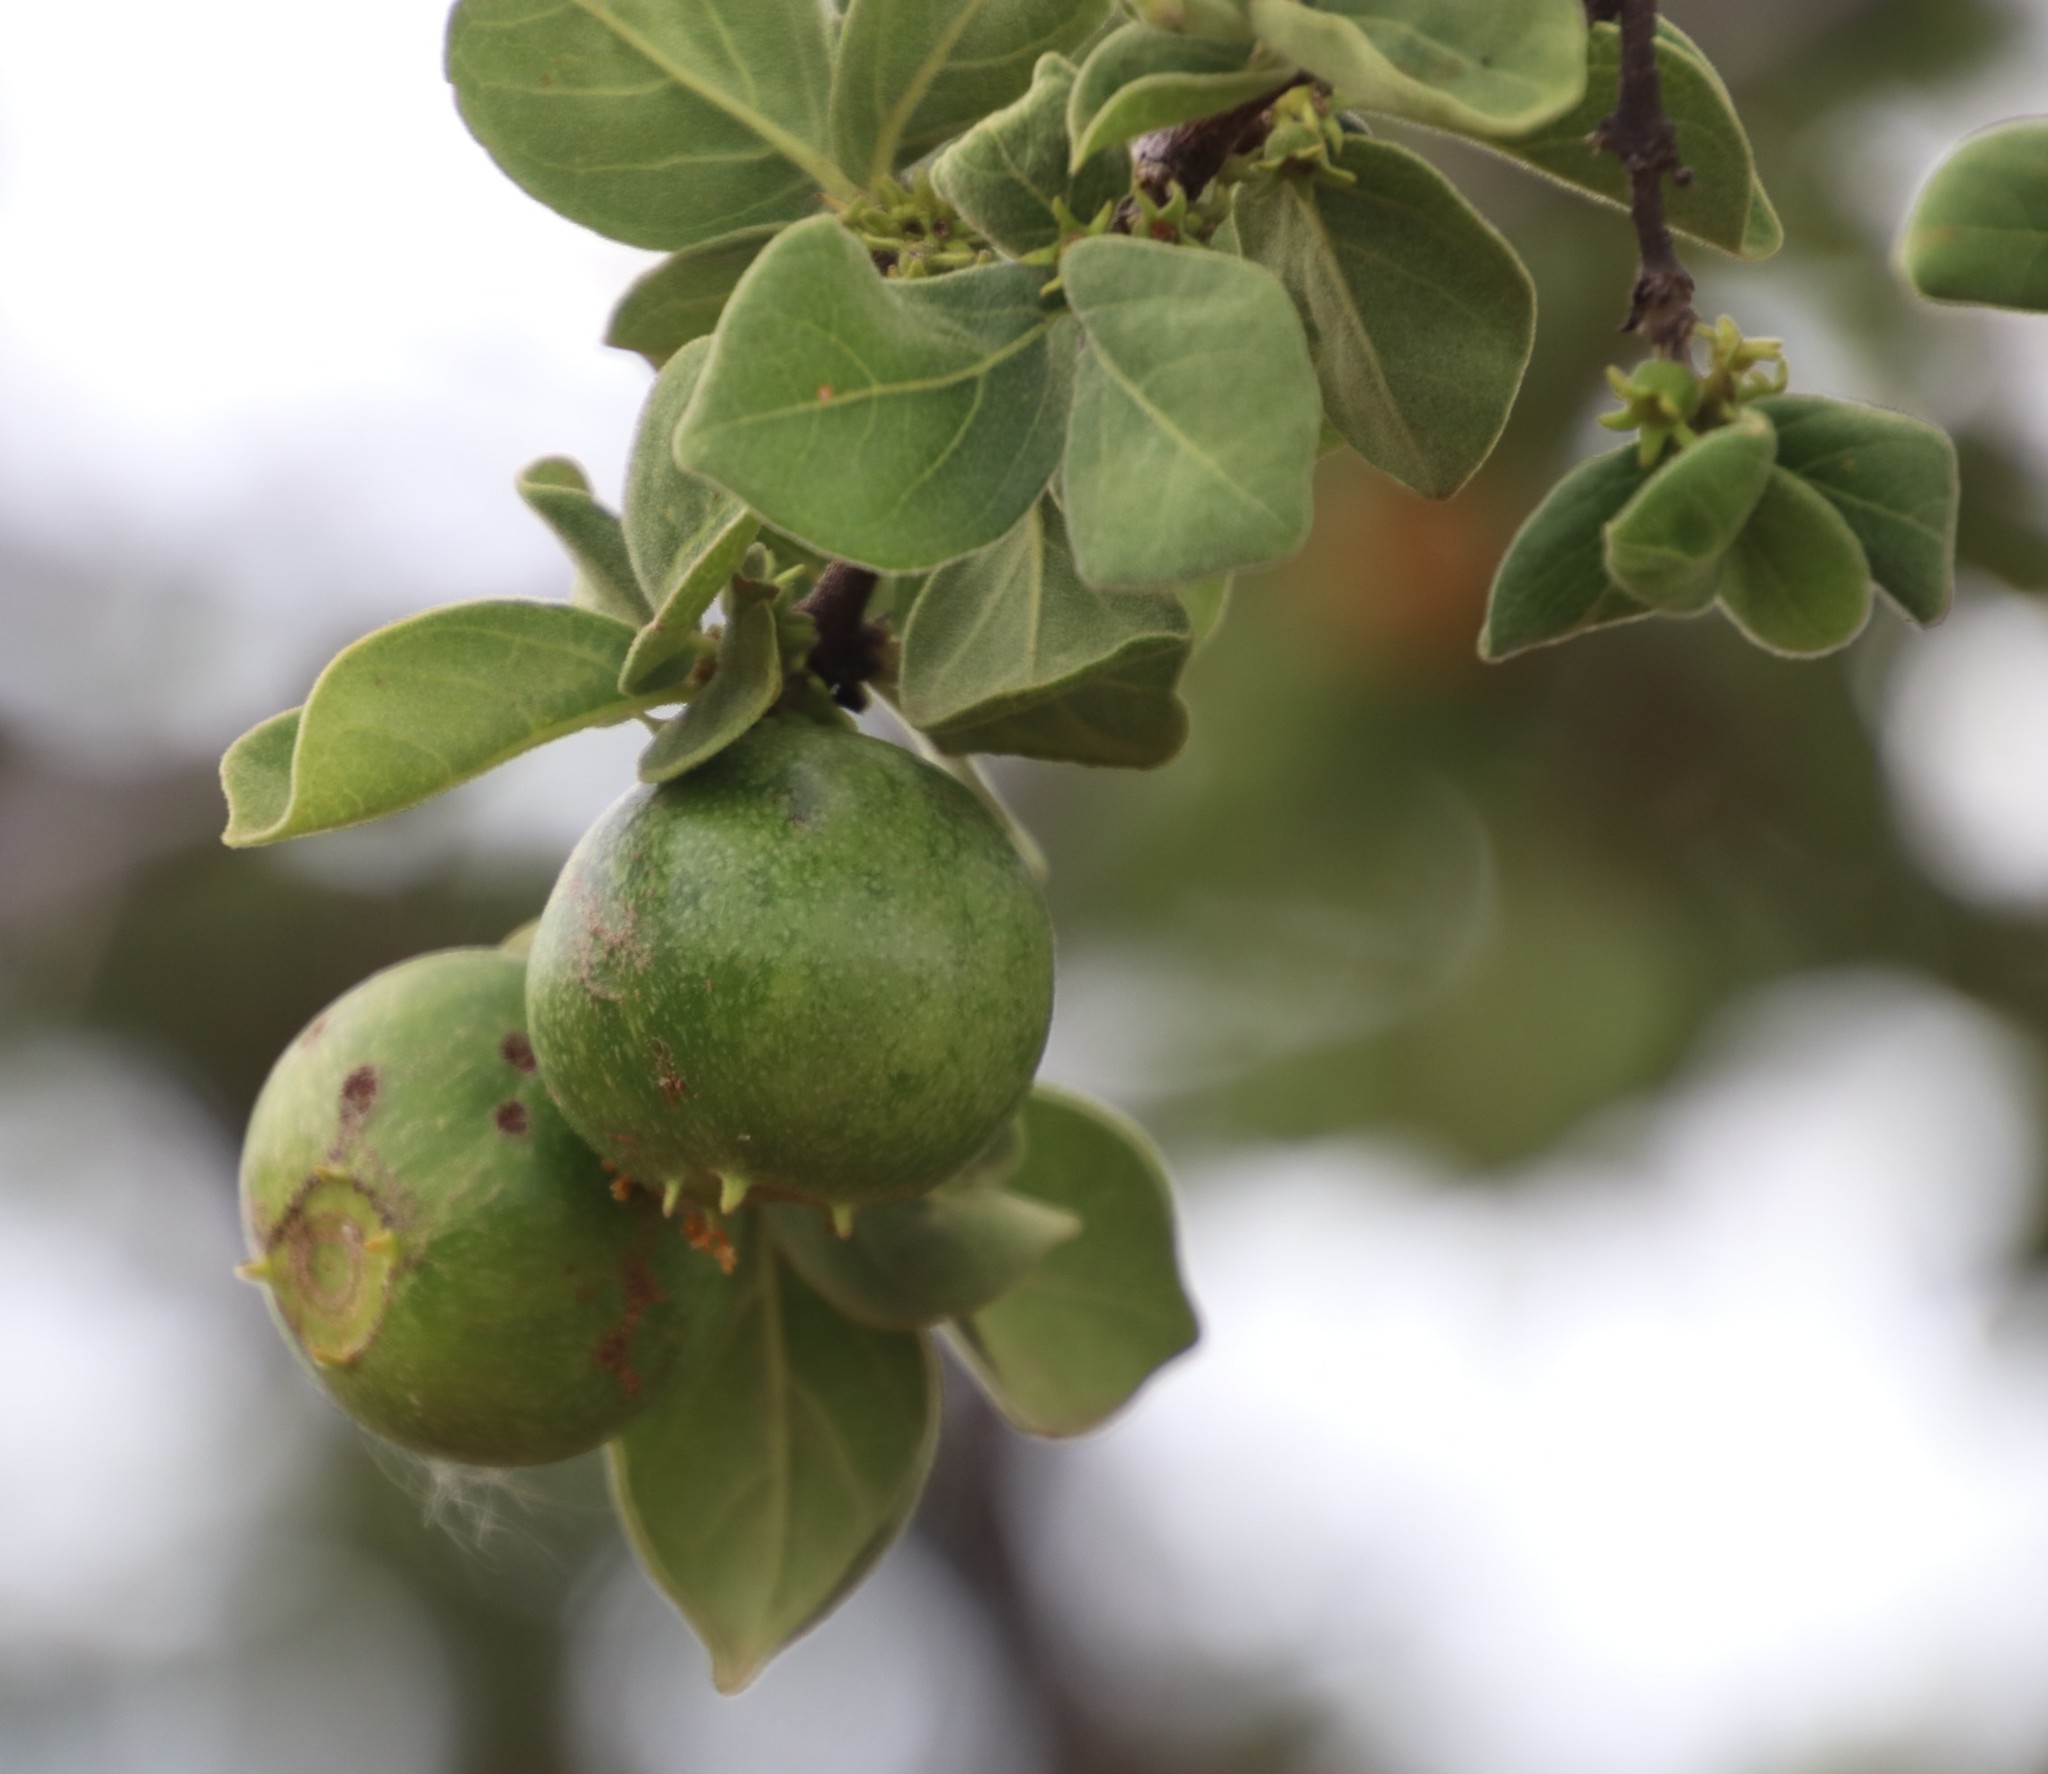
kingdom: Plantae
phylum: Tracheophyta
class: Magnoliopsida
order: Gentianales
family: Rubiaceae
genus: Vangueria
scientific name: Vangueria parvifolia
